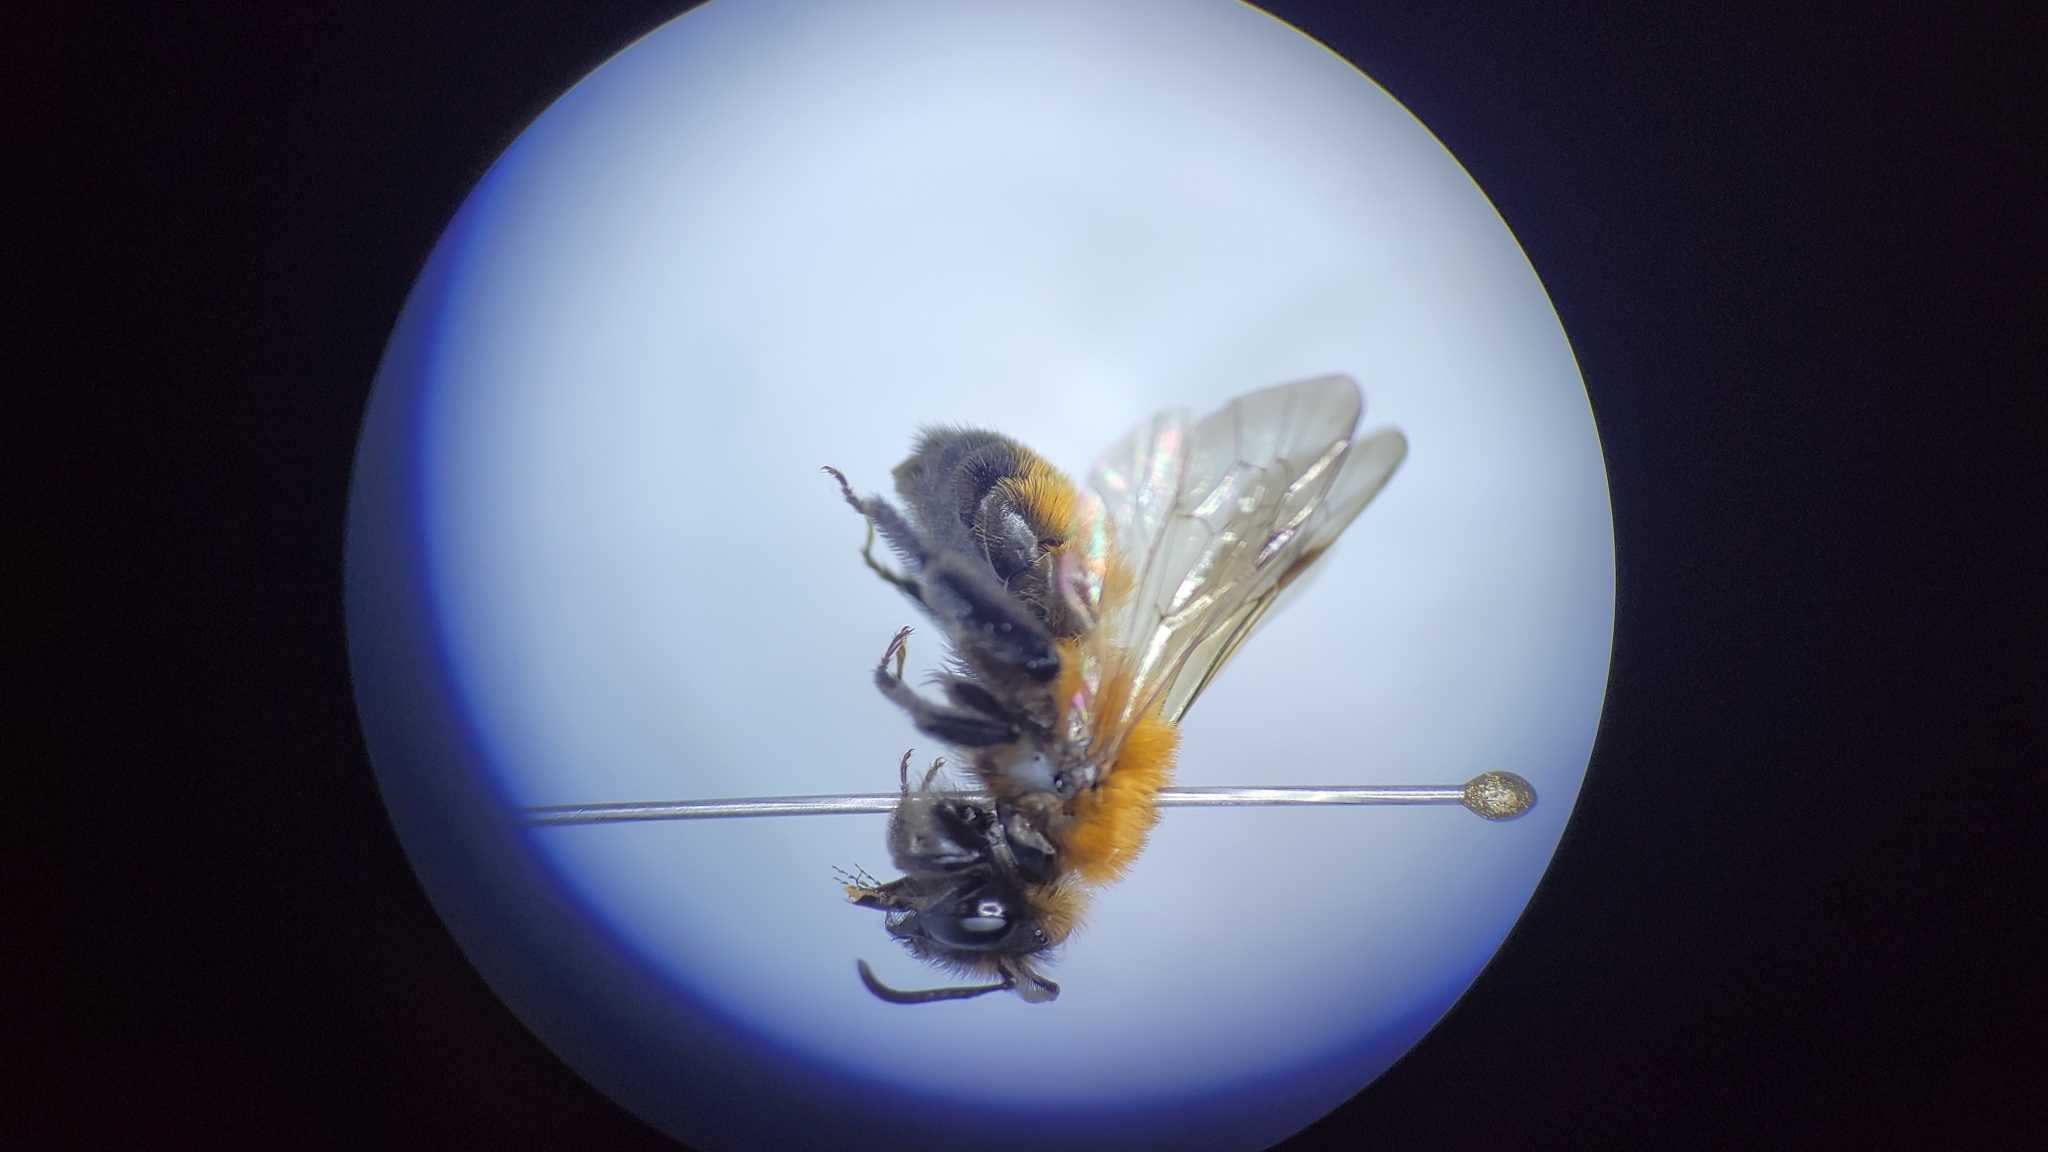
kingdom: Animalia
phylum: Arthropoda
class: Insecta
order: Hymenoptera
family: Andrenidae
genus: Andrena
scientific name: Andrena milwaukeensis
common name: Milwaukee mining bee
